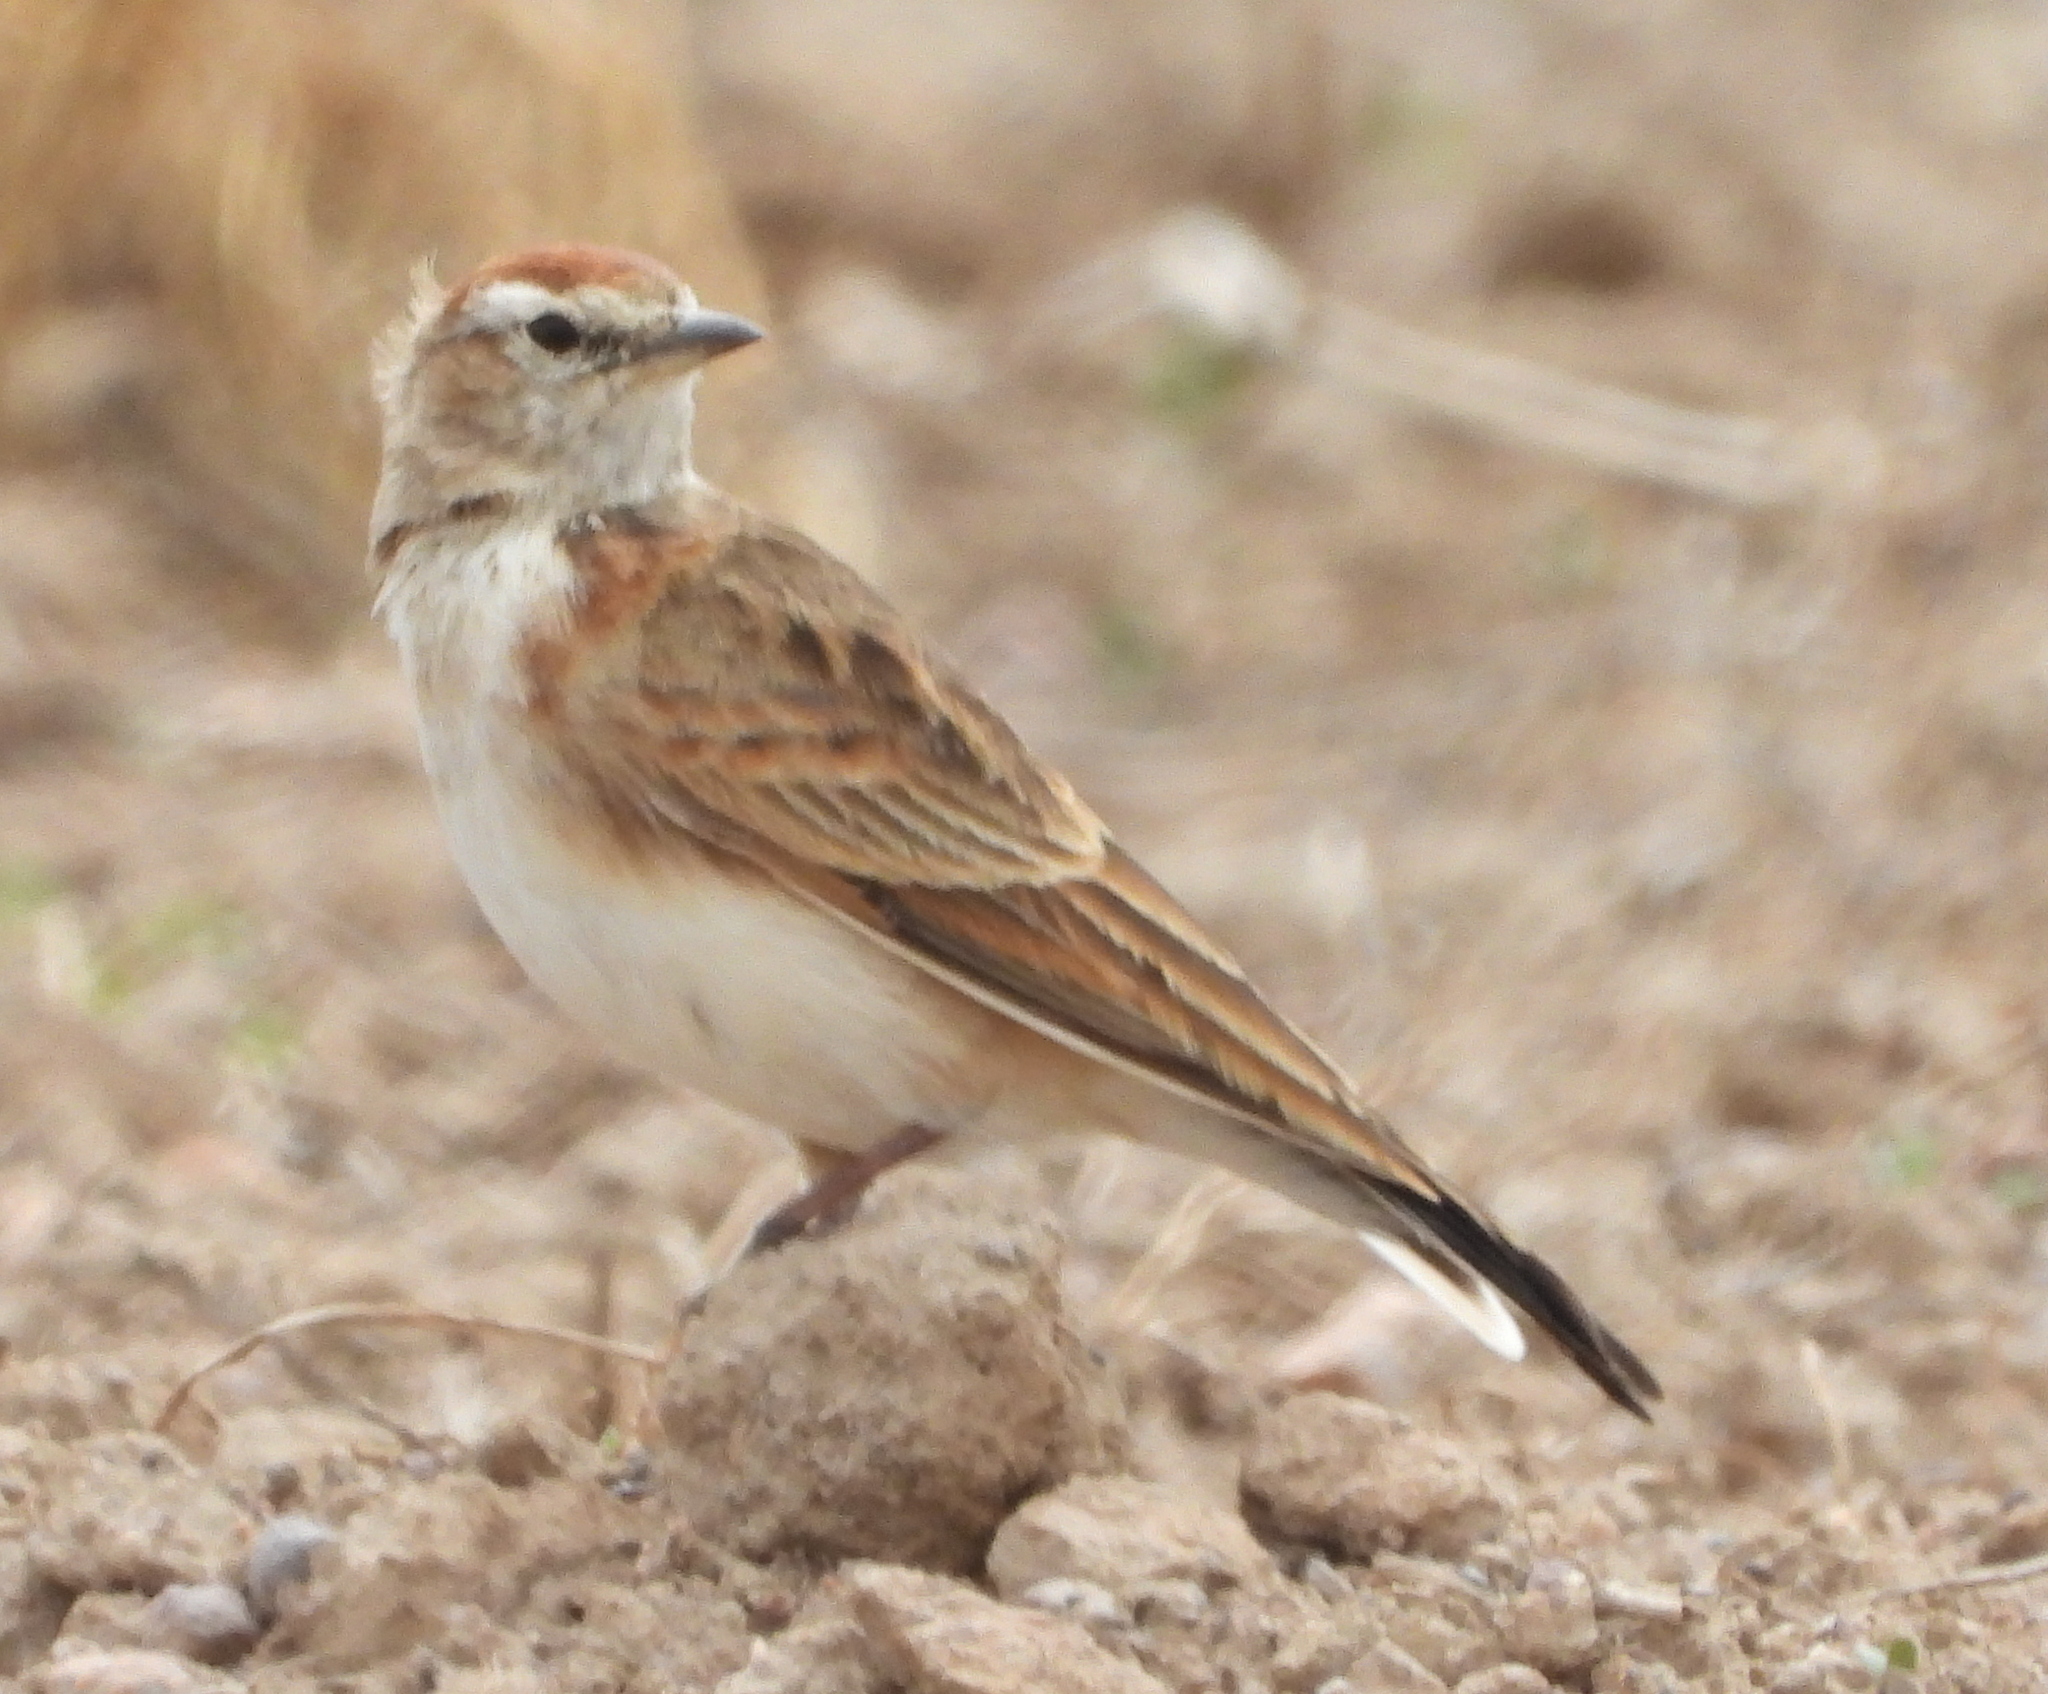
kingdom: Animalia
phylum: Chordata
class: Aves
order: Passeriformes
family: Alaudidae
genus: Calandrella
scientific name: Calandrella cinerea
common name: Red-capped lark
